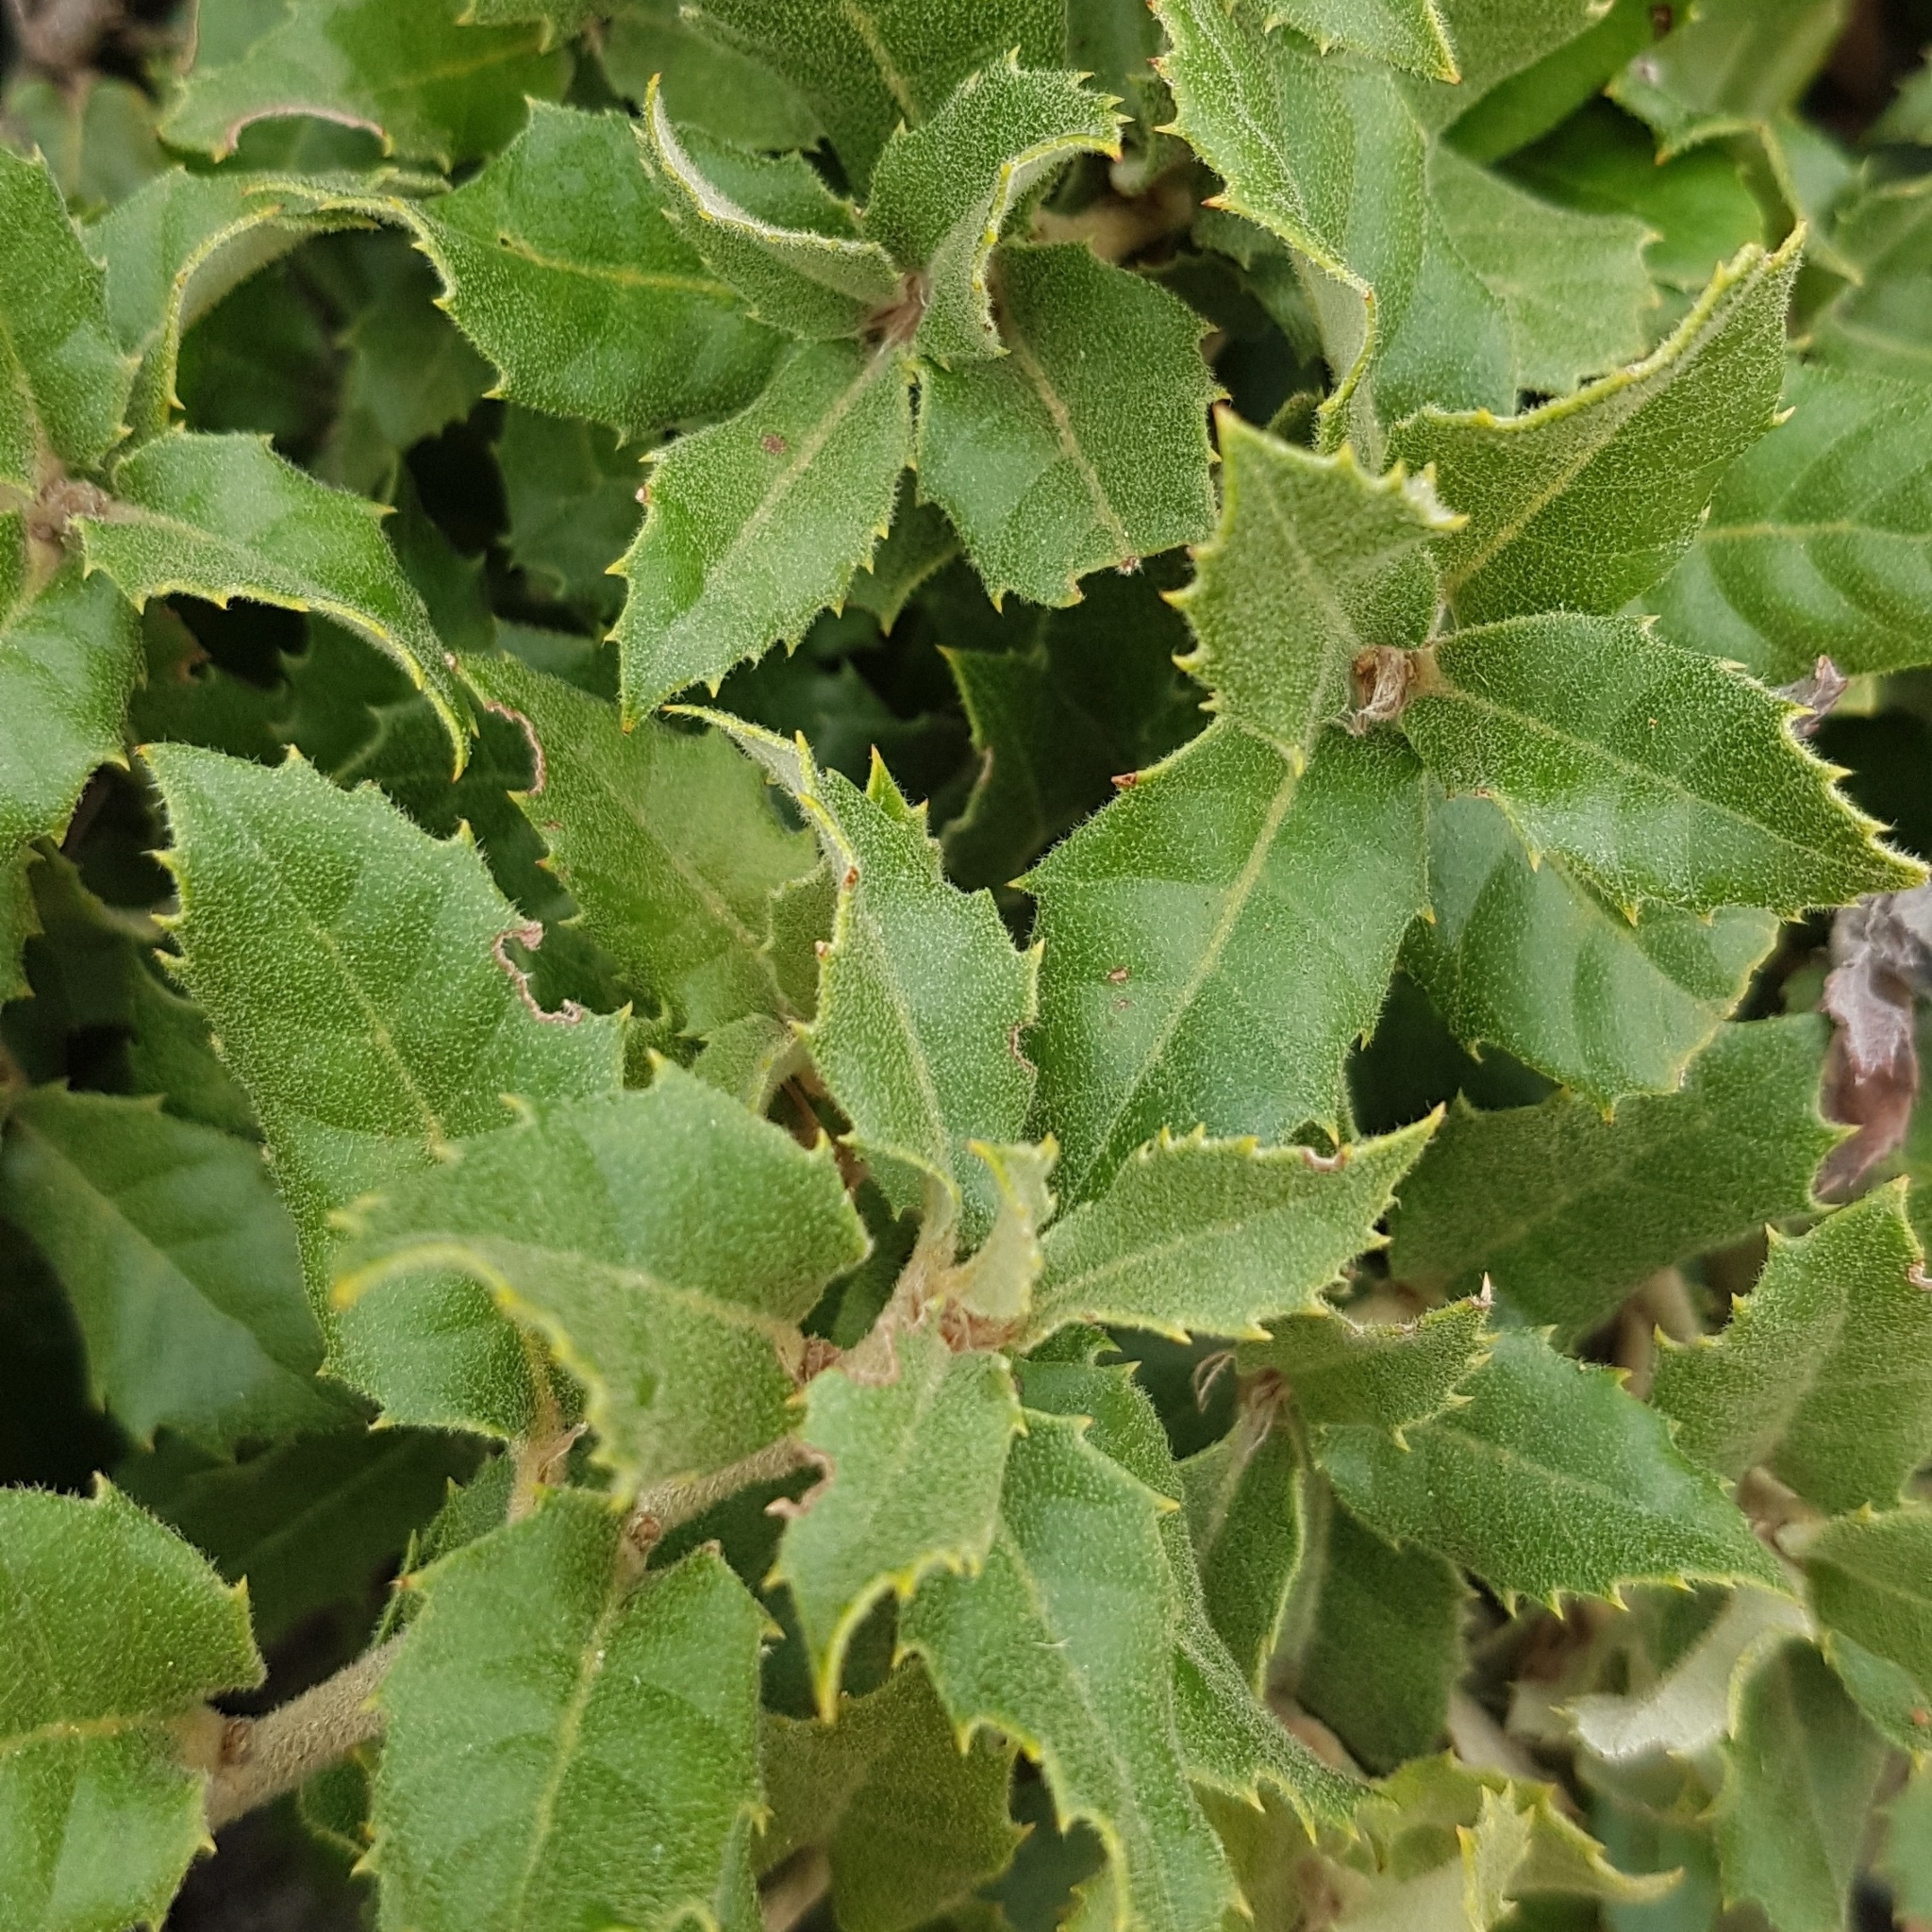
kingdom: Plantae
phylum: Tracheophyta
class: Magnoliopsida
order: Fagales
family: Fagaceae
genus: Quercus
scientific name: Quercus ilex
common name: Evergreen oak
